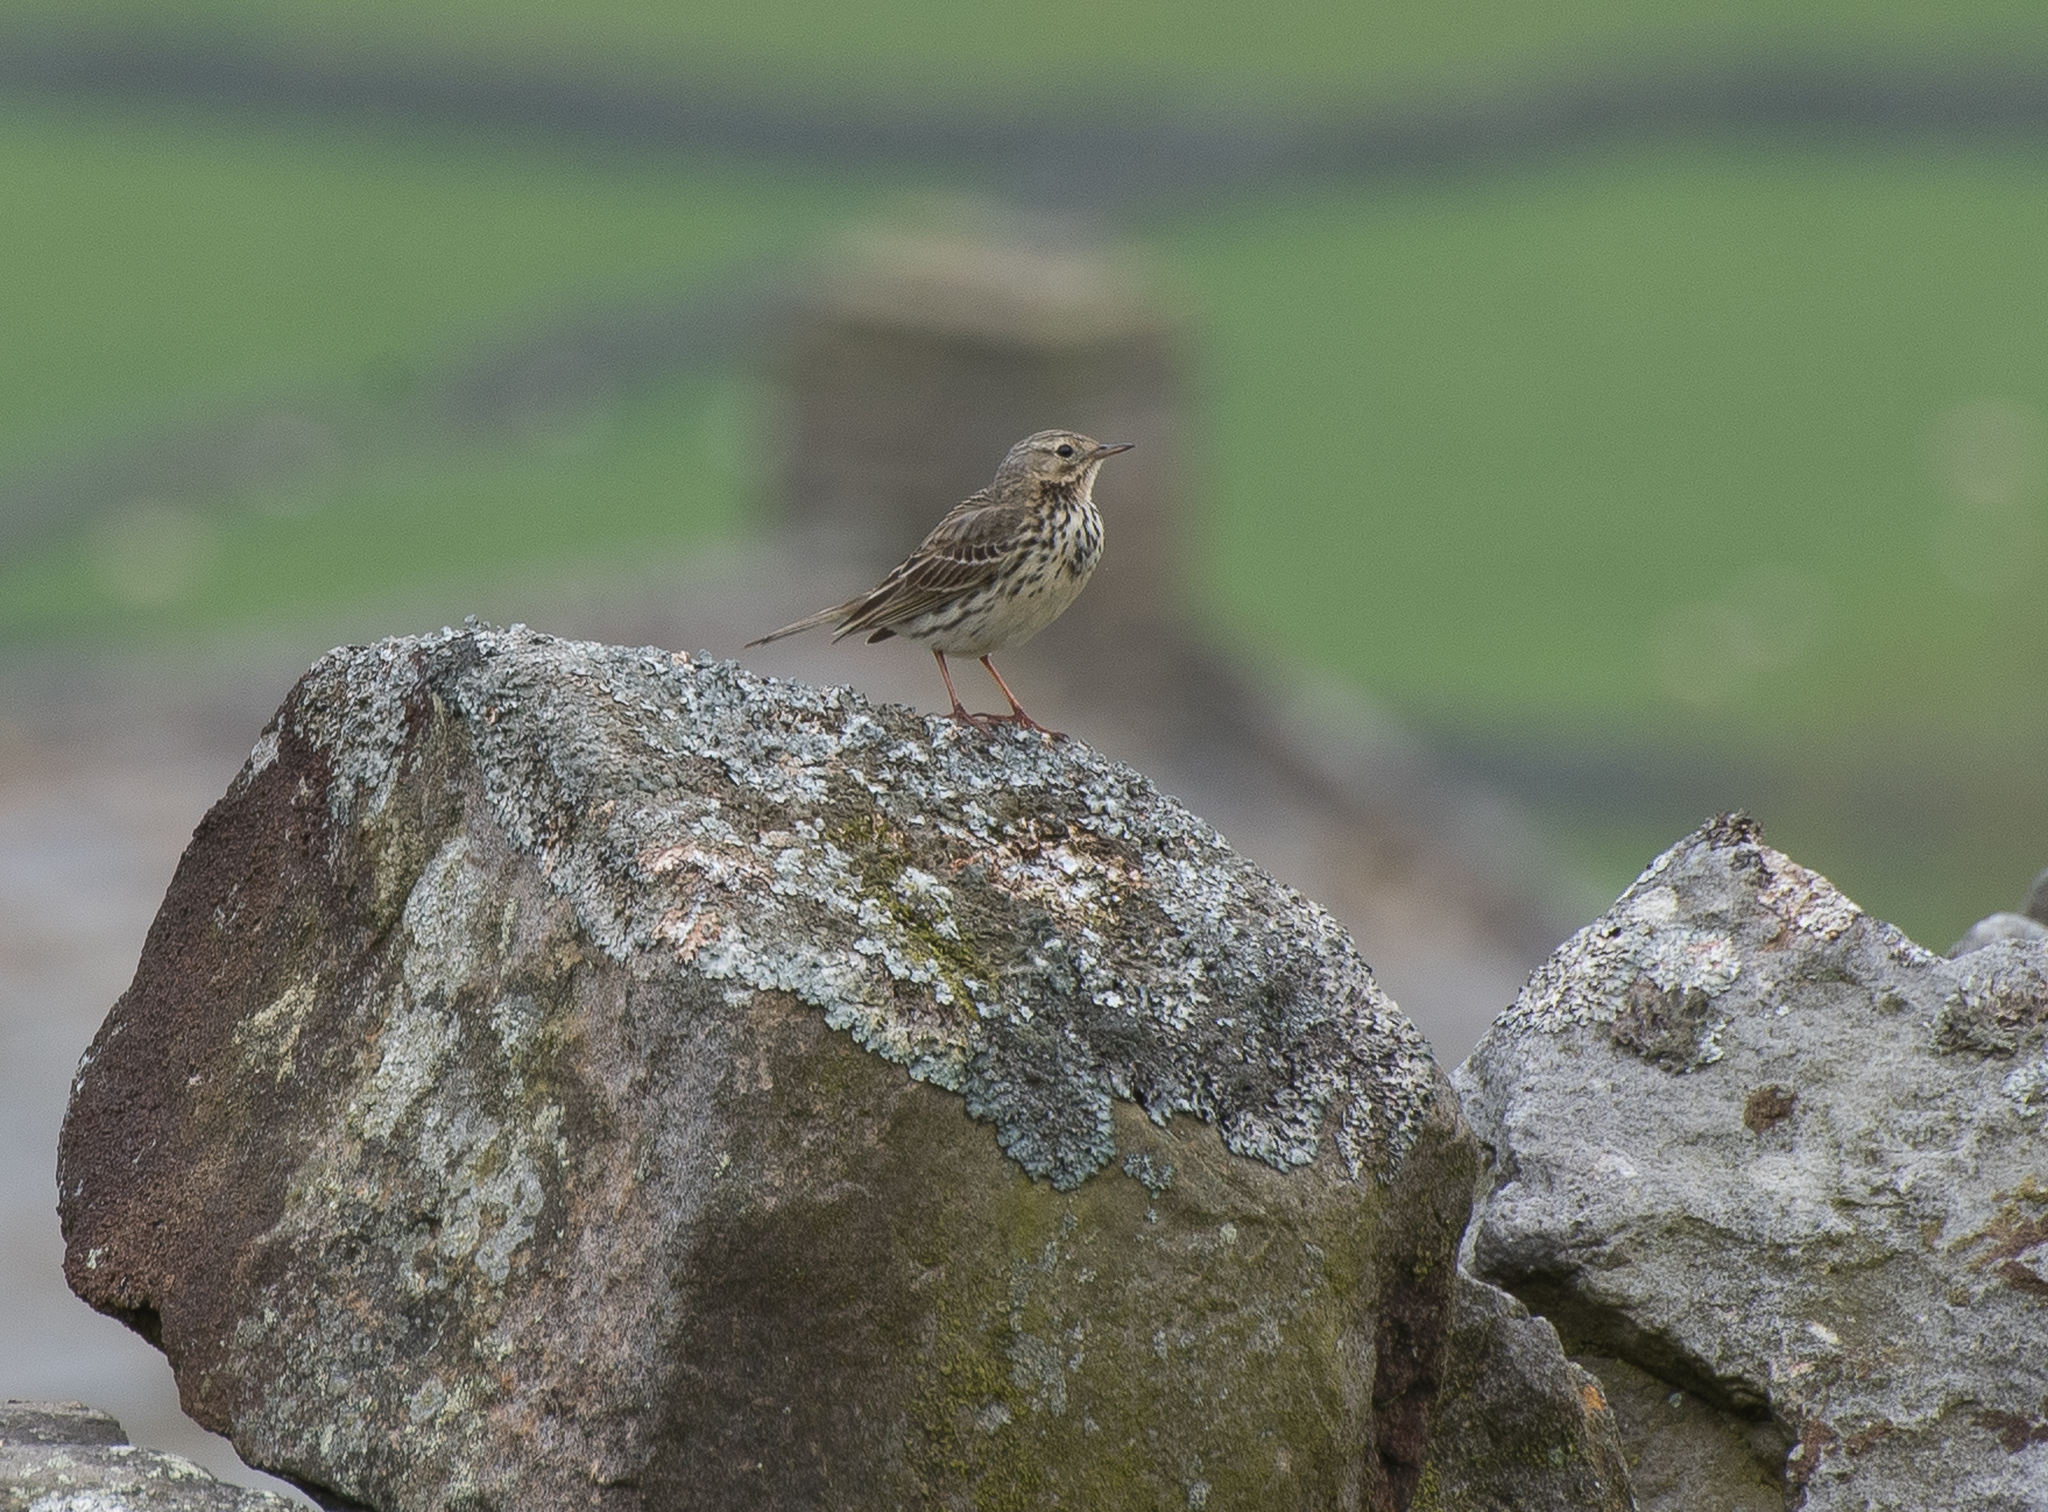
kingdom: Animalia
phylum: Chordata
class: Aves
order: Passeriformes
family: Motacillidae
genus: Anthus
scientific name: Anthus pratensis
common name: Meadow pipit
